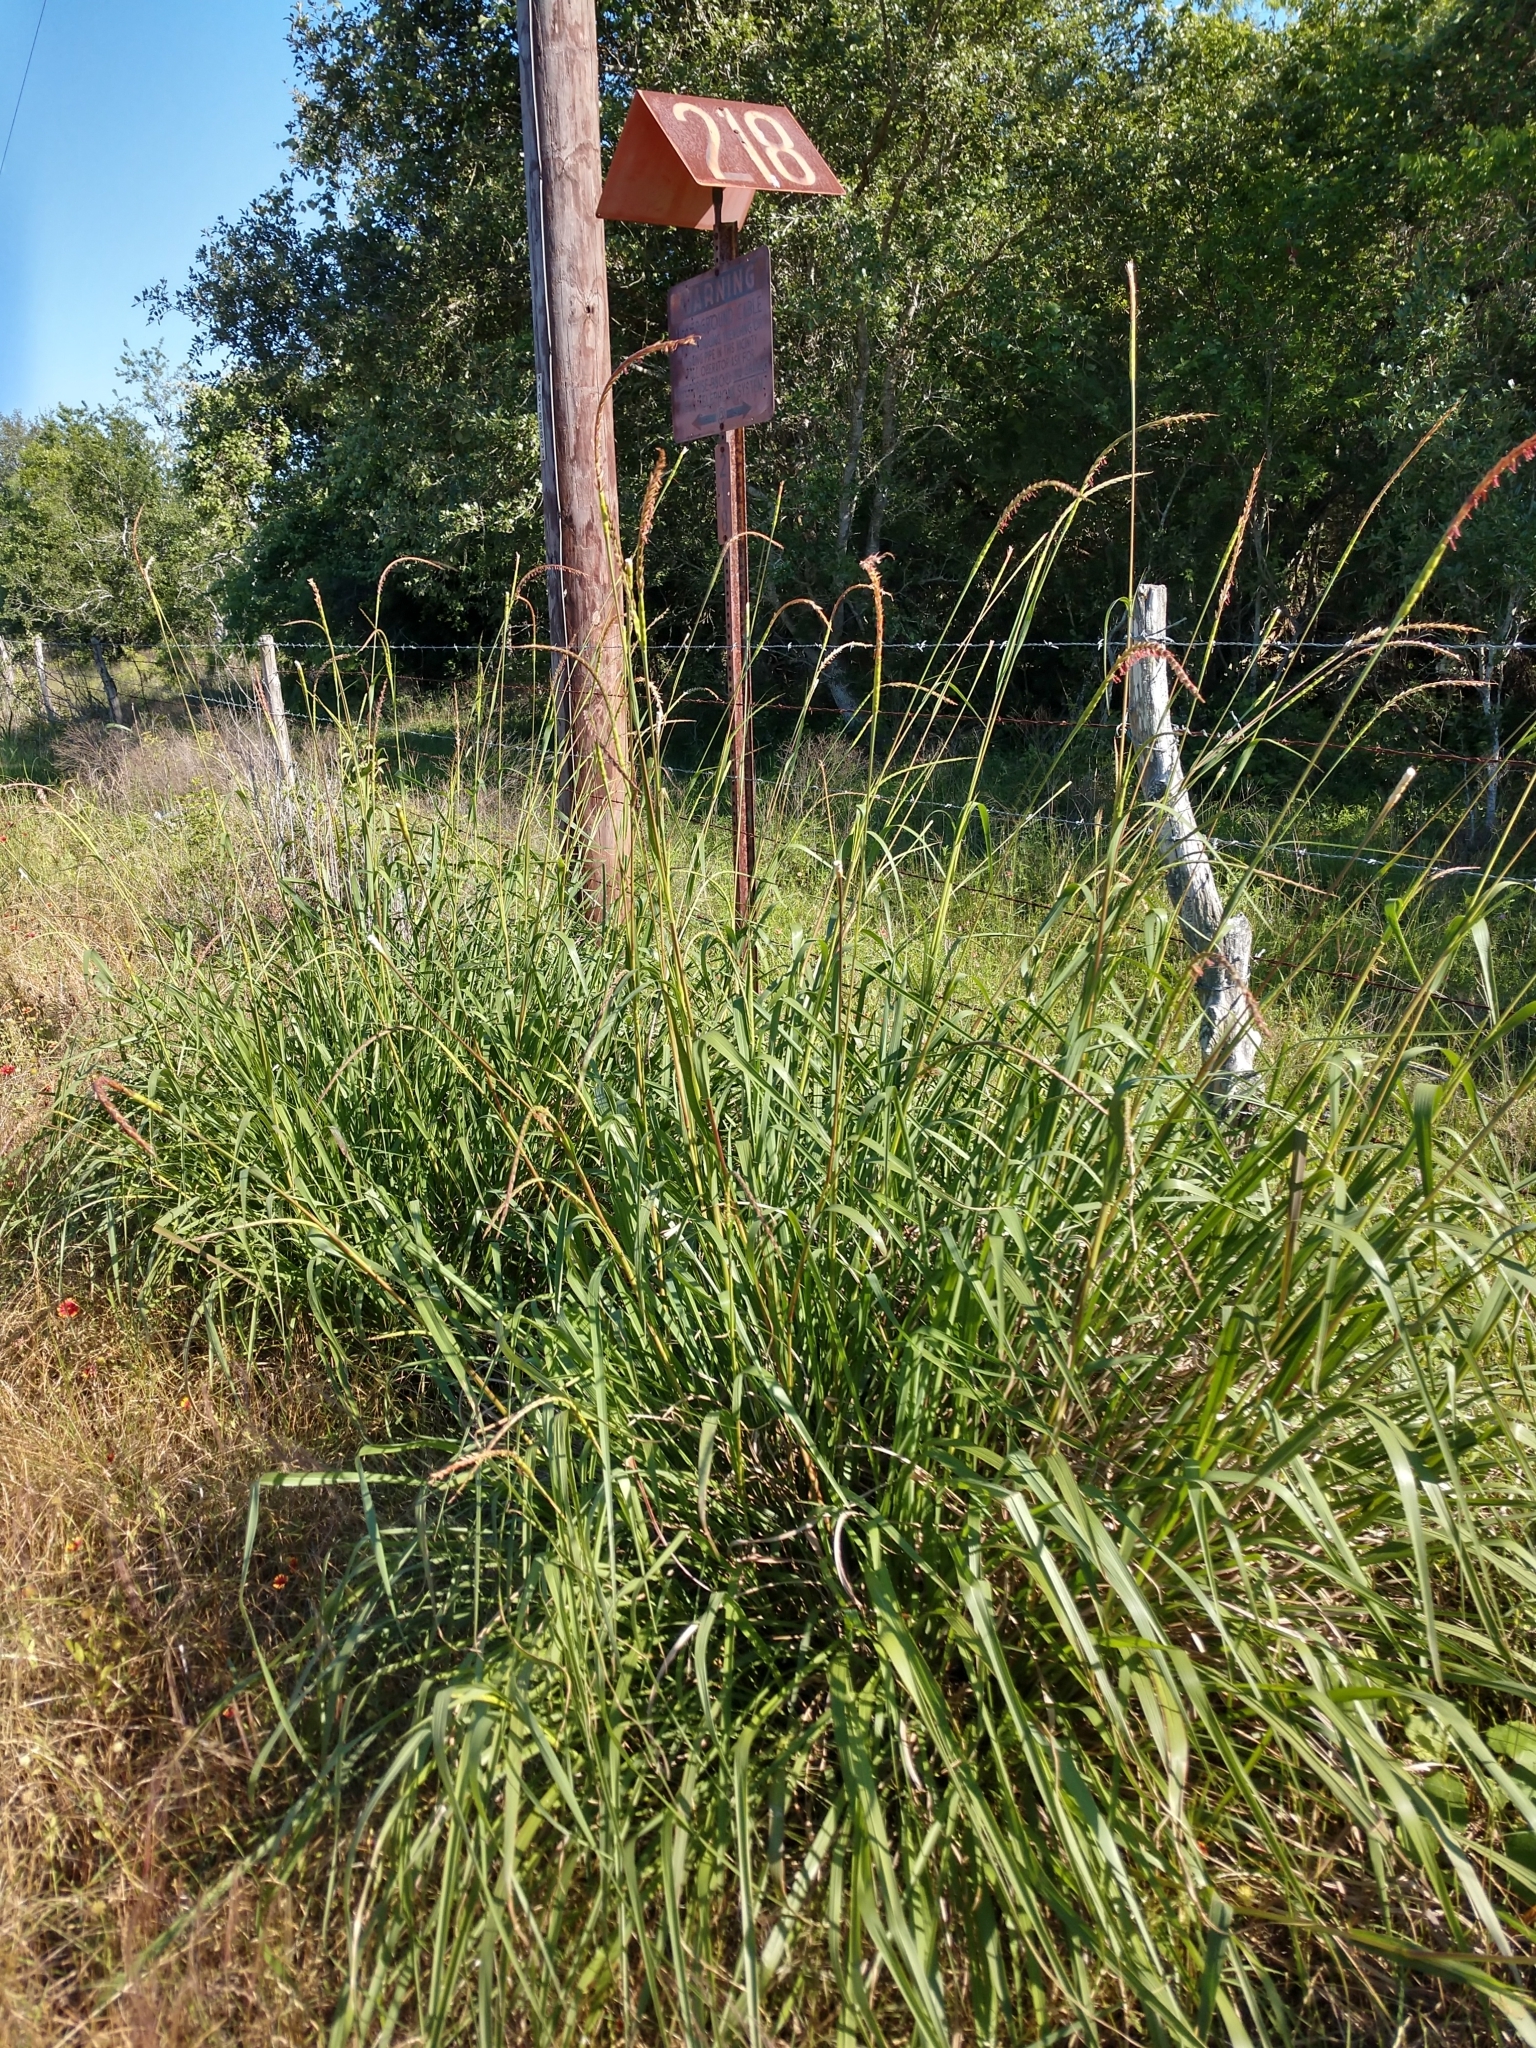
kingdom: Plantae
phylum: Tracheophyta
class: Liliopsida
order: Poales
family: Poaceae
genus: Tripsacum
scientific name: Tripsacum dactyloides
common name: Buffalo-grass
